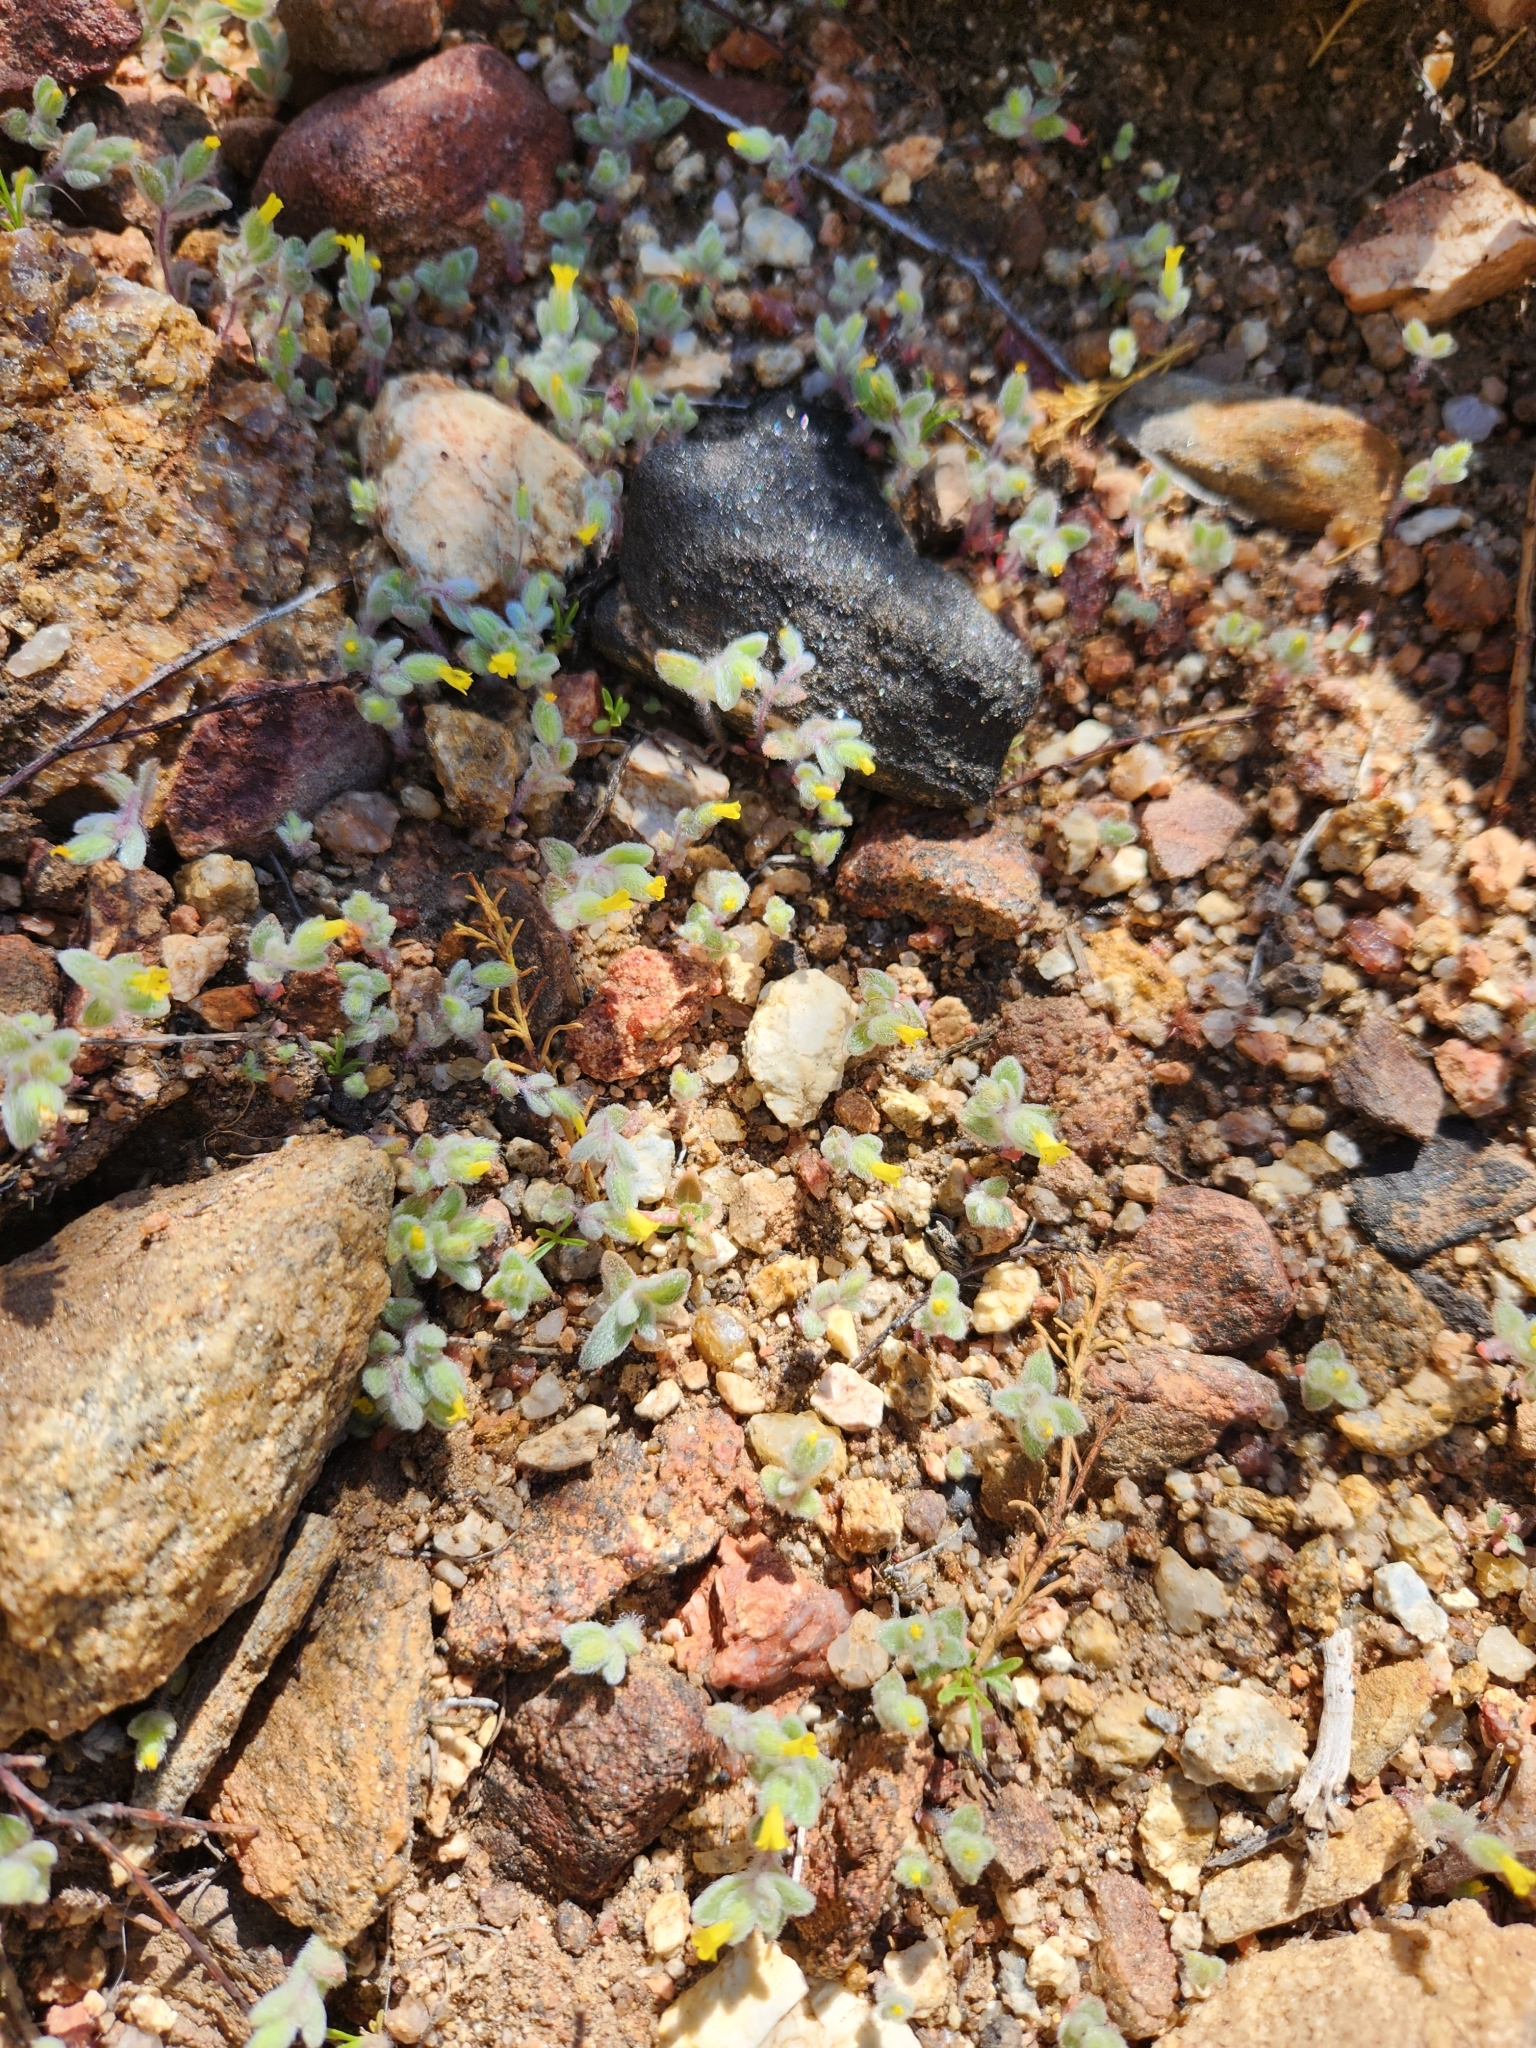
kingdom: Plantae
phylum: Tracheophyta
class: Magnoliopsida
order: Lamiales
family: Phrymaceae
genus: Mimetanthe
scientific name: Mimetanthe pilosa
